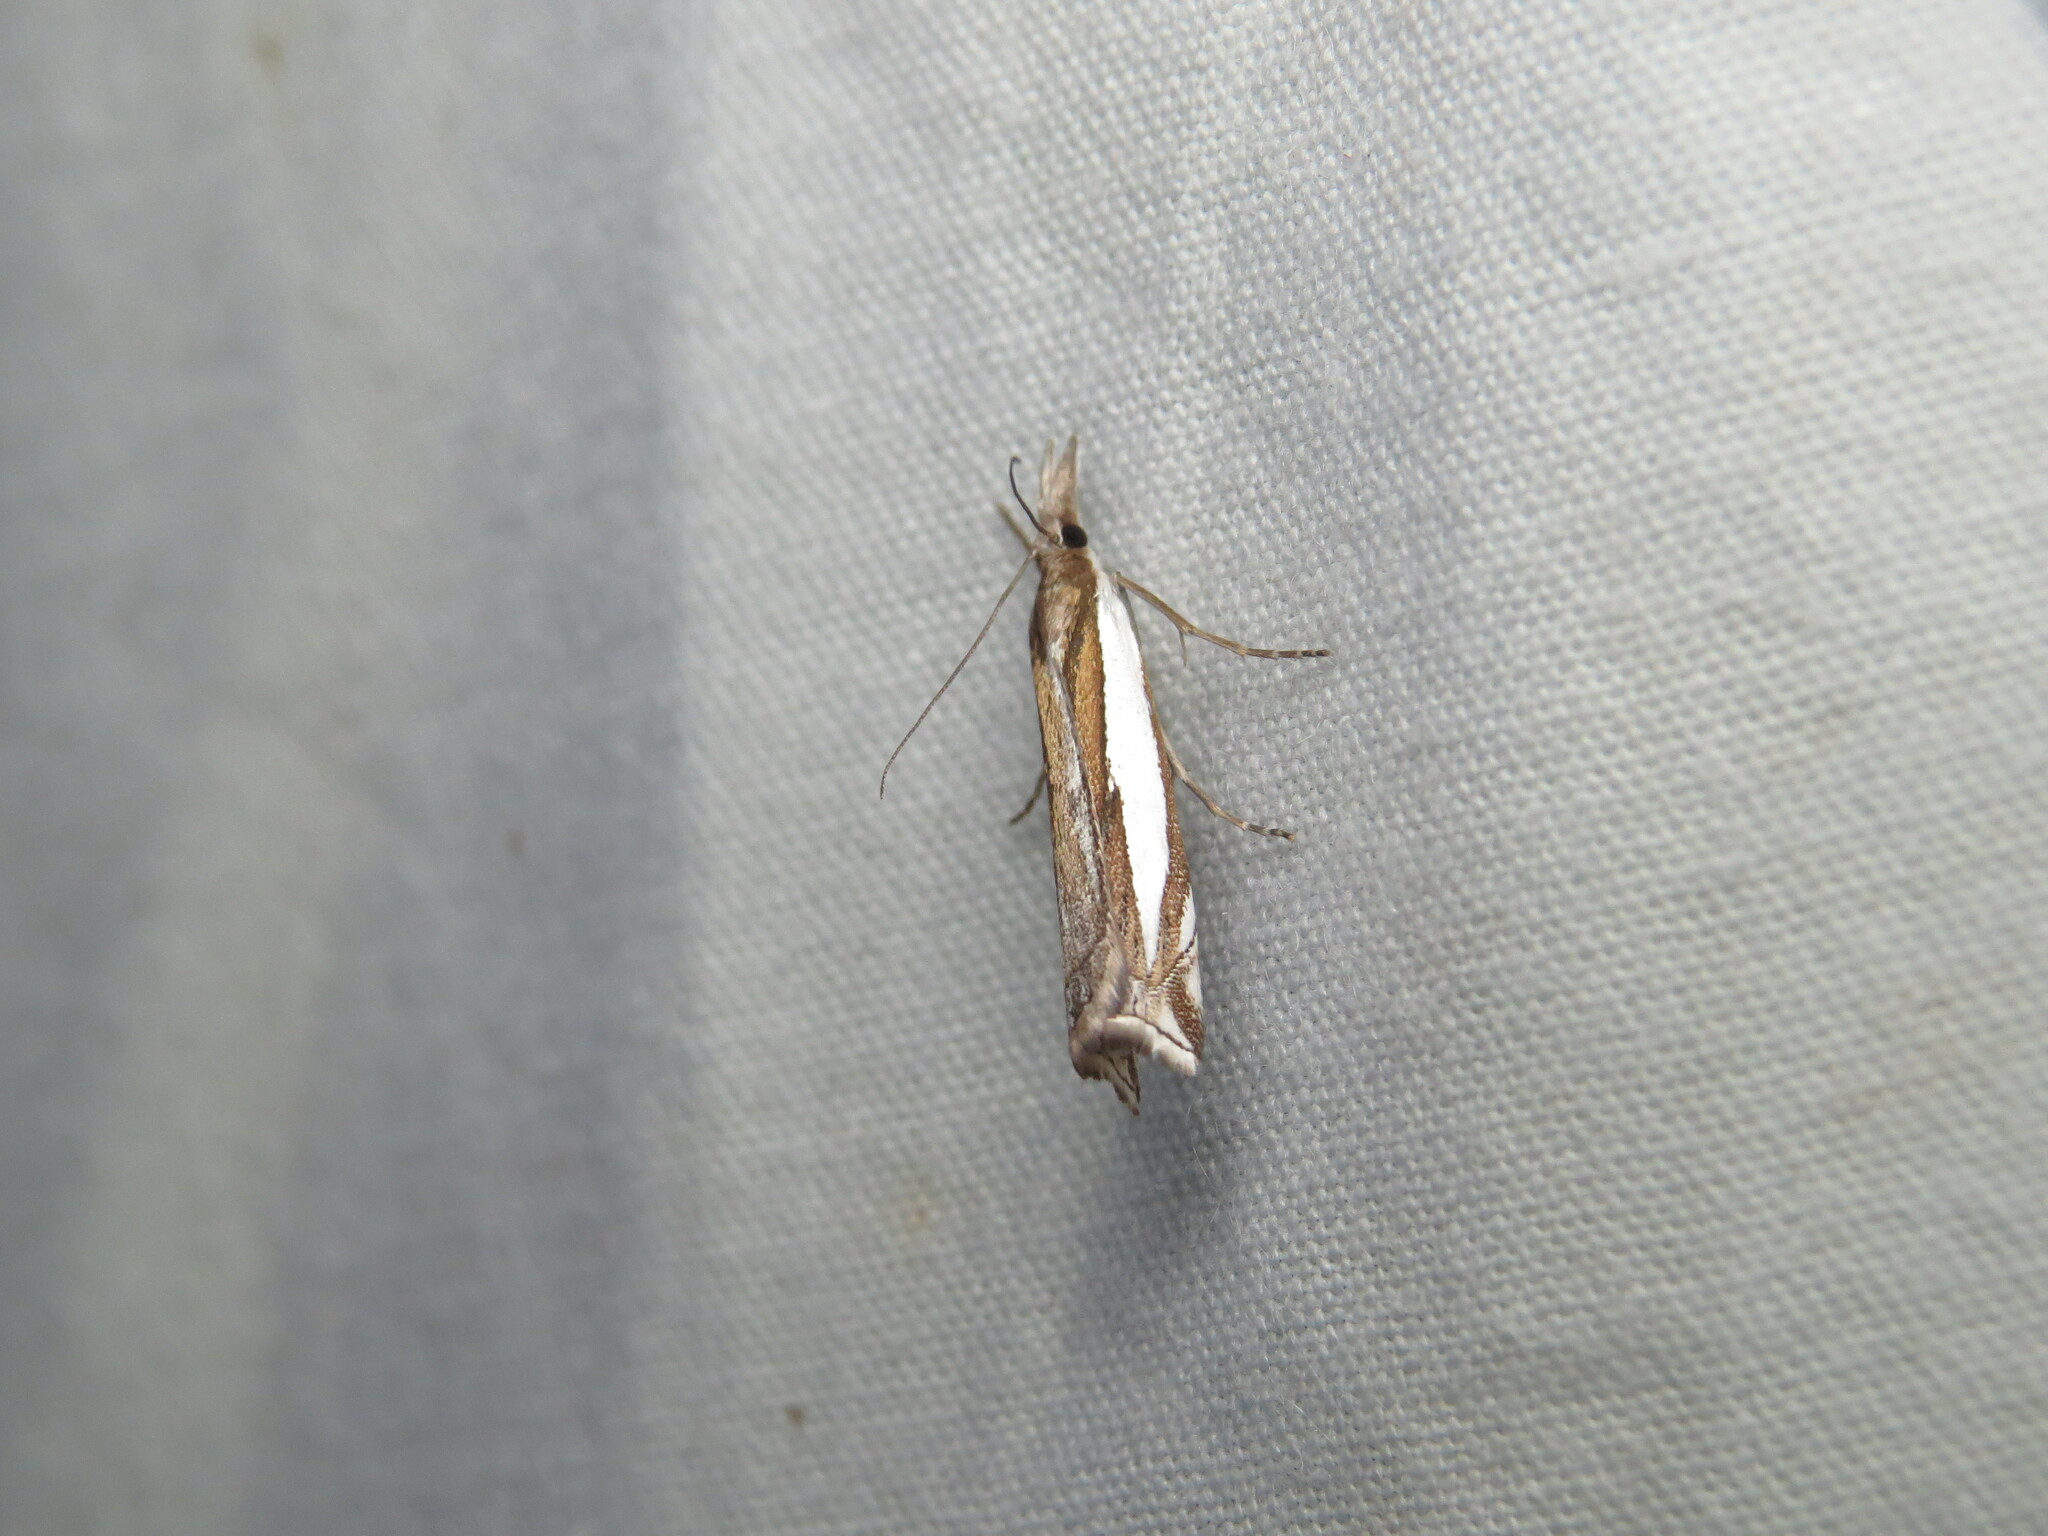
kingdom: Animalia
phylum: Arthropoda
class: Insecta
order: Lepidoptera
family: Crambidae
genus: Crambus
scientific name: Crambus leachellus
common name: Leach's grass-veneer
